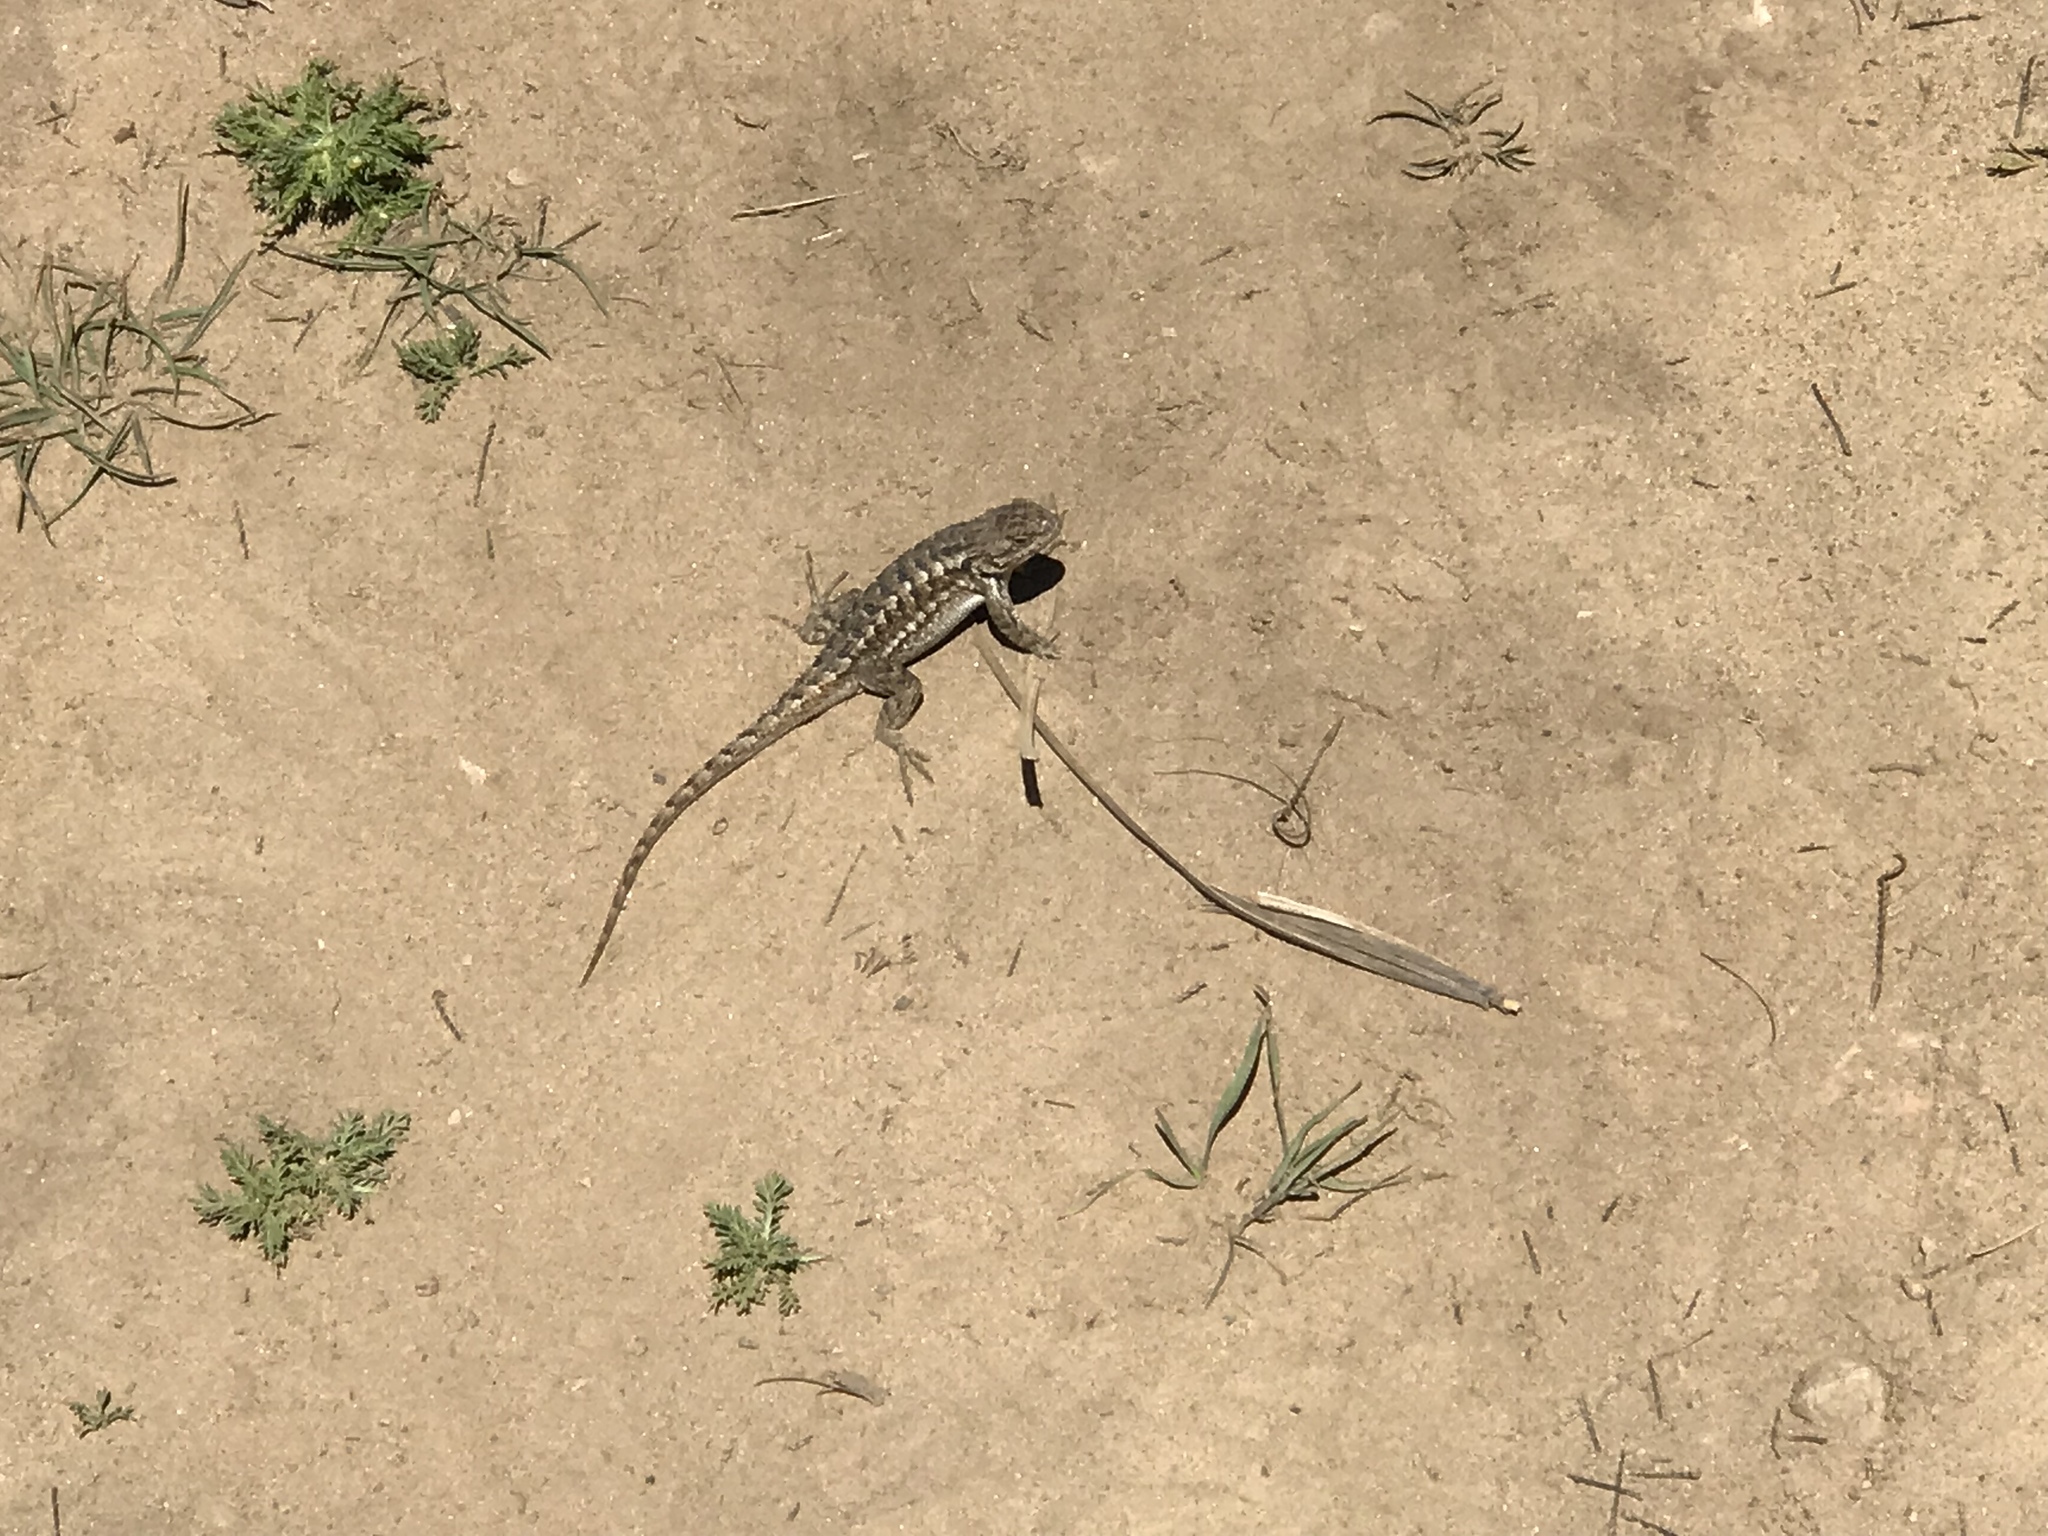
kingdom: Animalia
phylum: Chordata
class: Squamata
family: Phrynosomatidae
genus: Sceloporus
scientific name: Sceloporus occidentalis
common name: Western fence lizard
